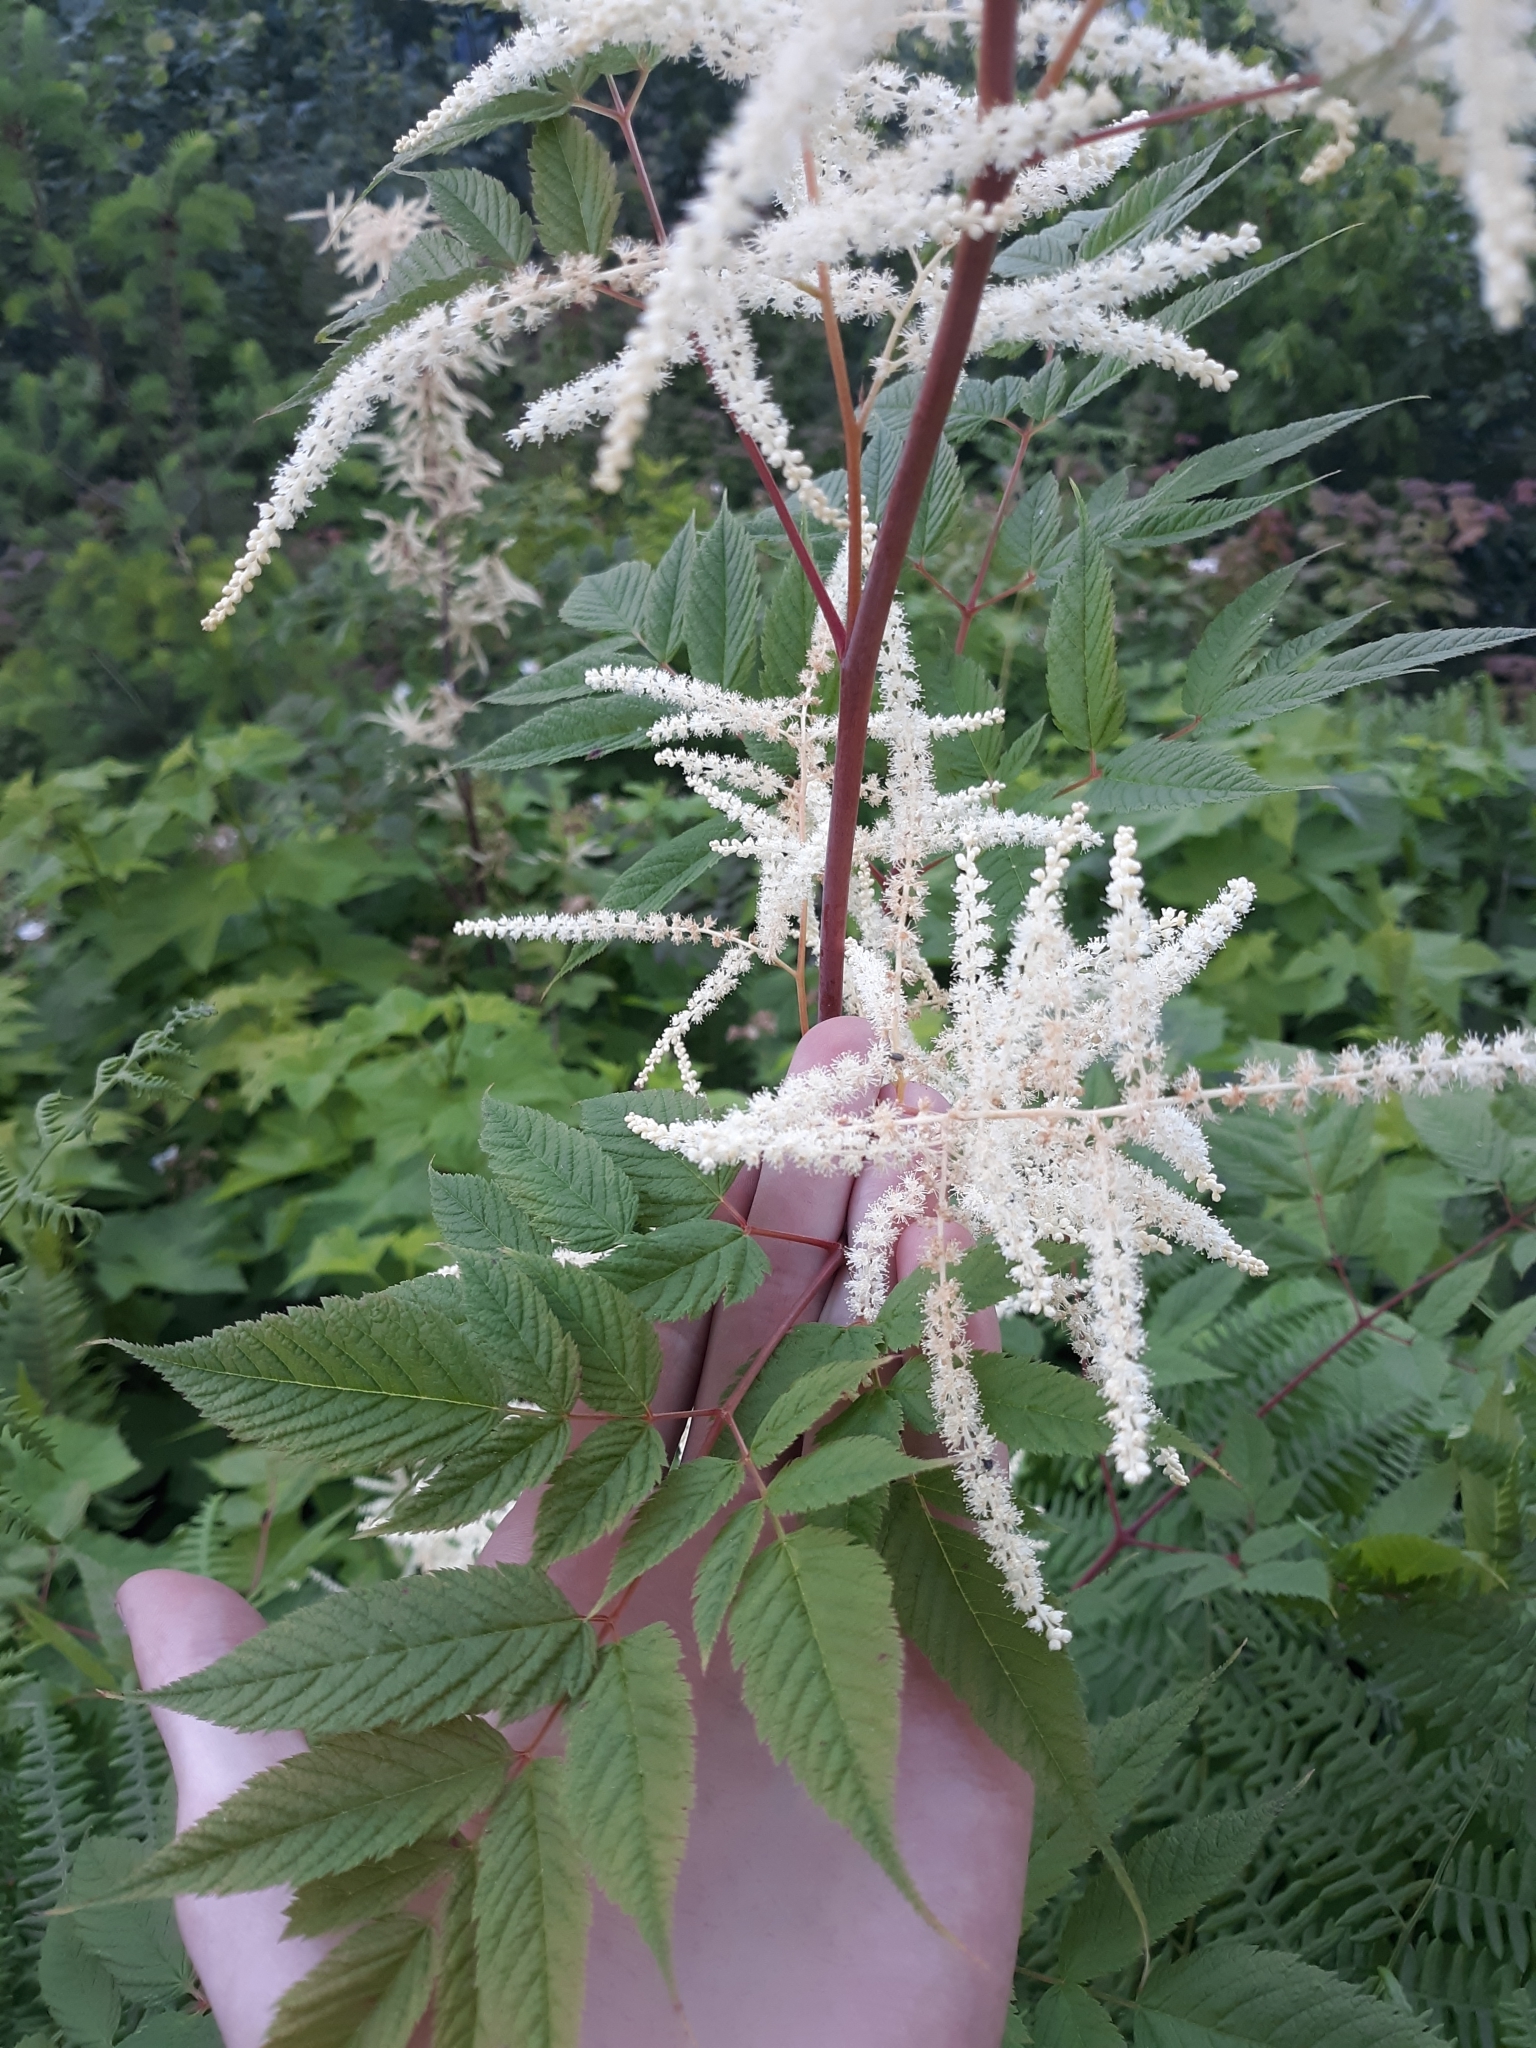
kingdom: Plantae
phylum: Tracheophyta
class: Magnoliopsida
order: Rosales
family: Rosaceae
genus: Aruncus
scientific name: Aruncus dioicus
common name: Buck's-beard
